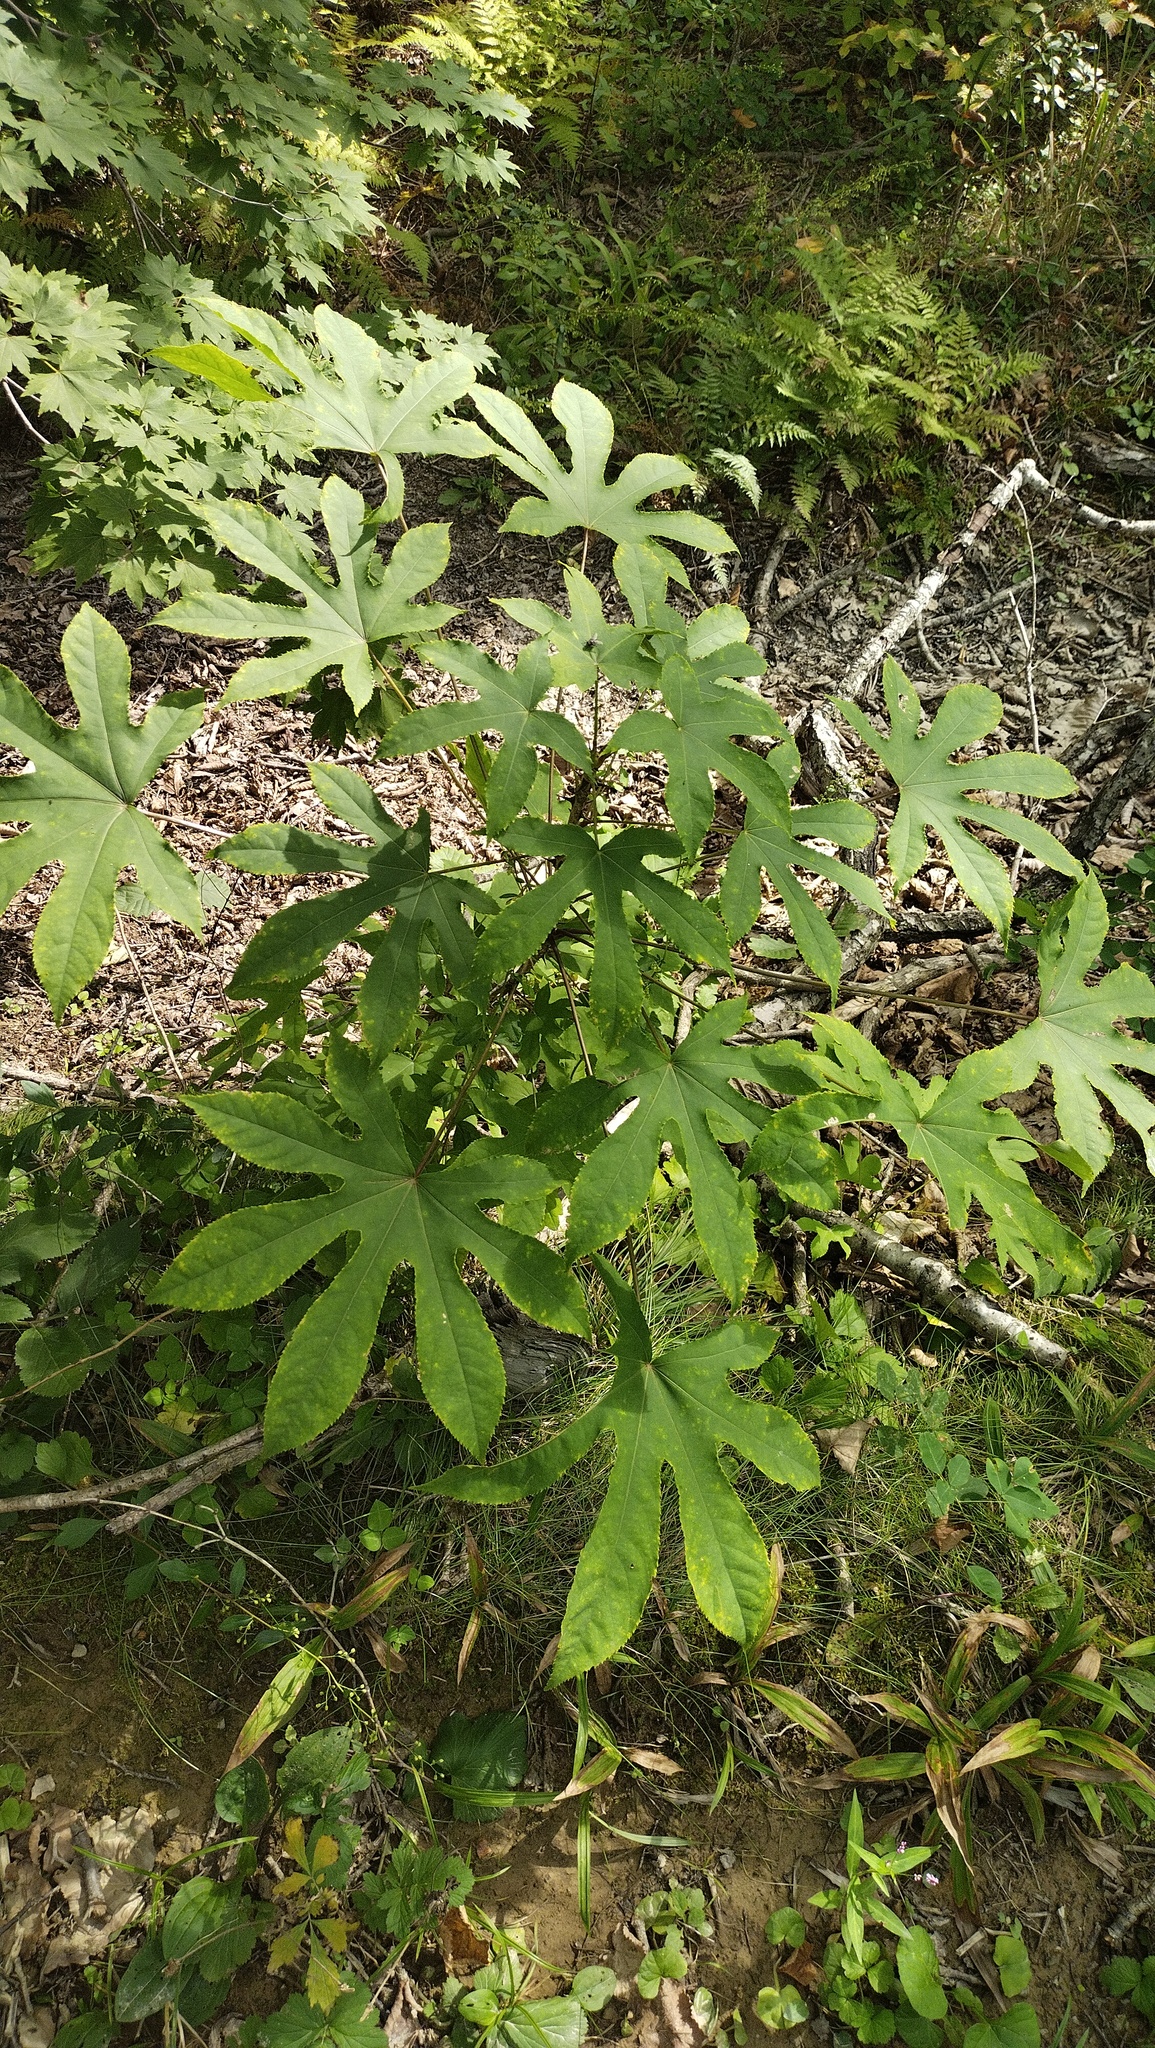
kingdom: Plantae
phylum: Tracheophyta
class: Magnoliopsida
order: Apiales
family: Araliaceae
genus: Kalopanax
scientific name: Kalopanax septemlobus
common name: Castor aralia
